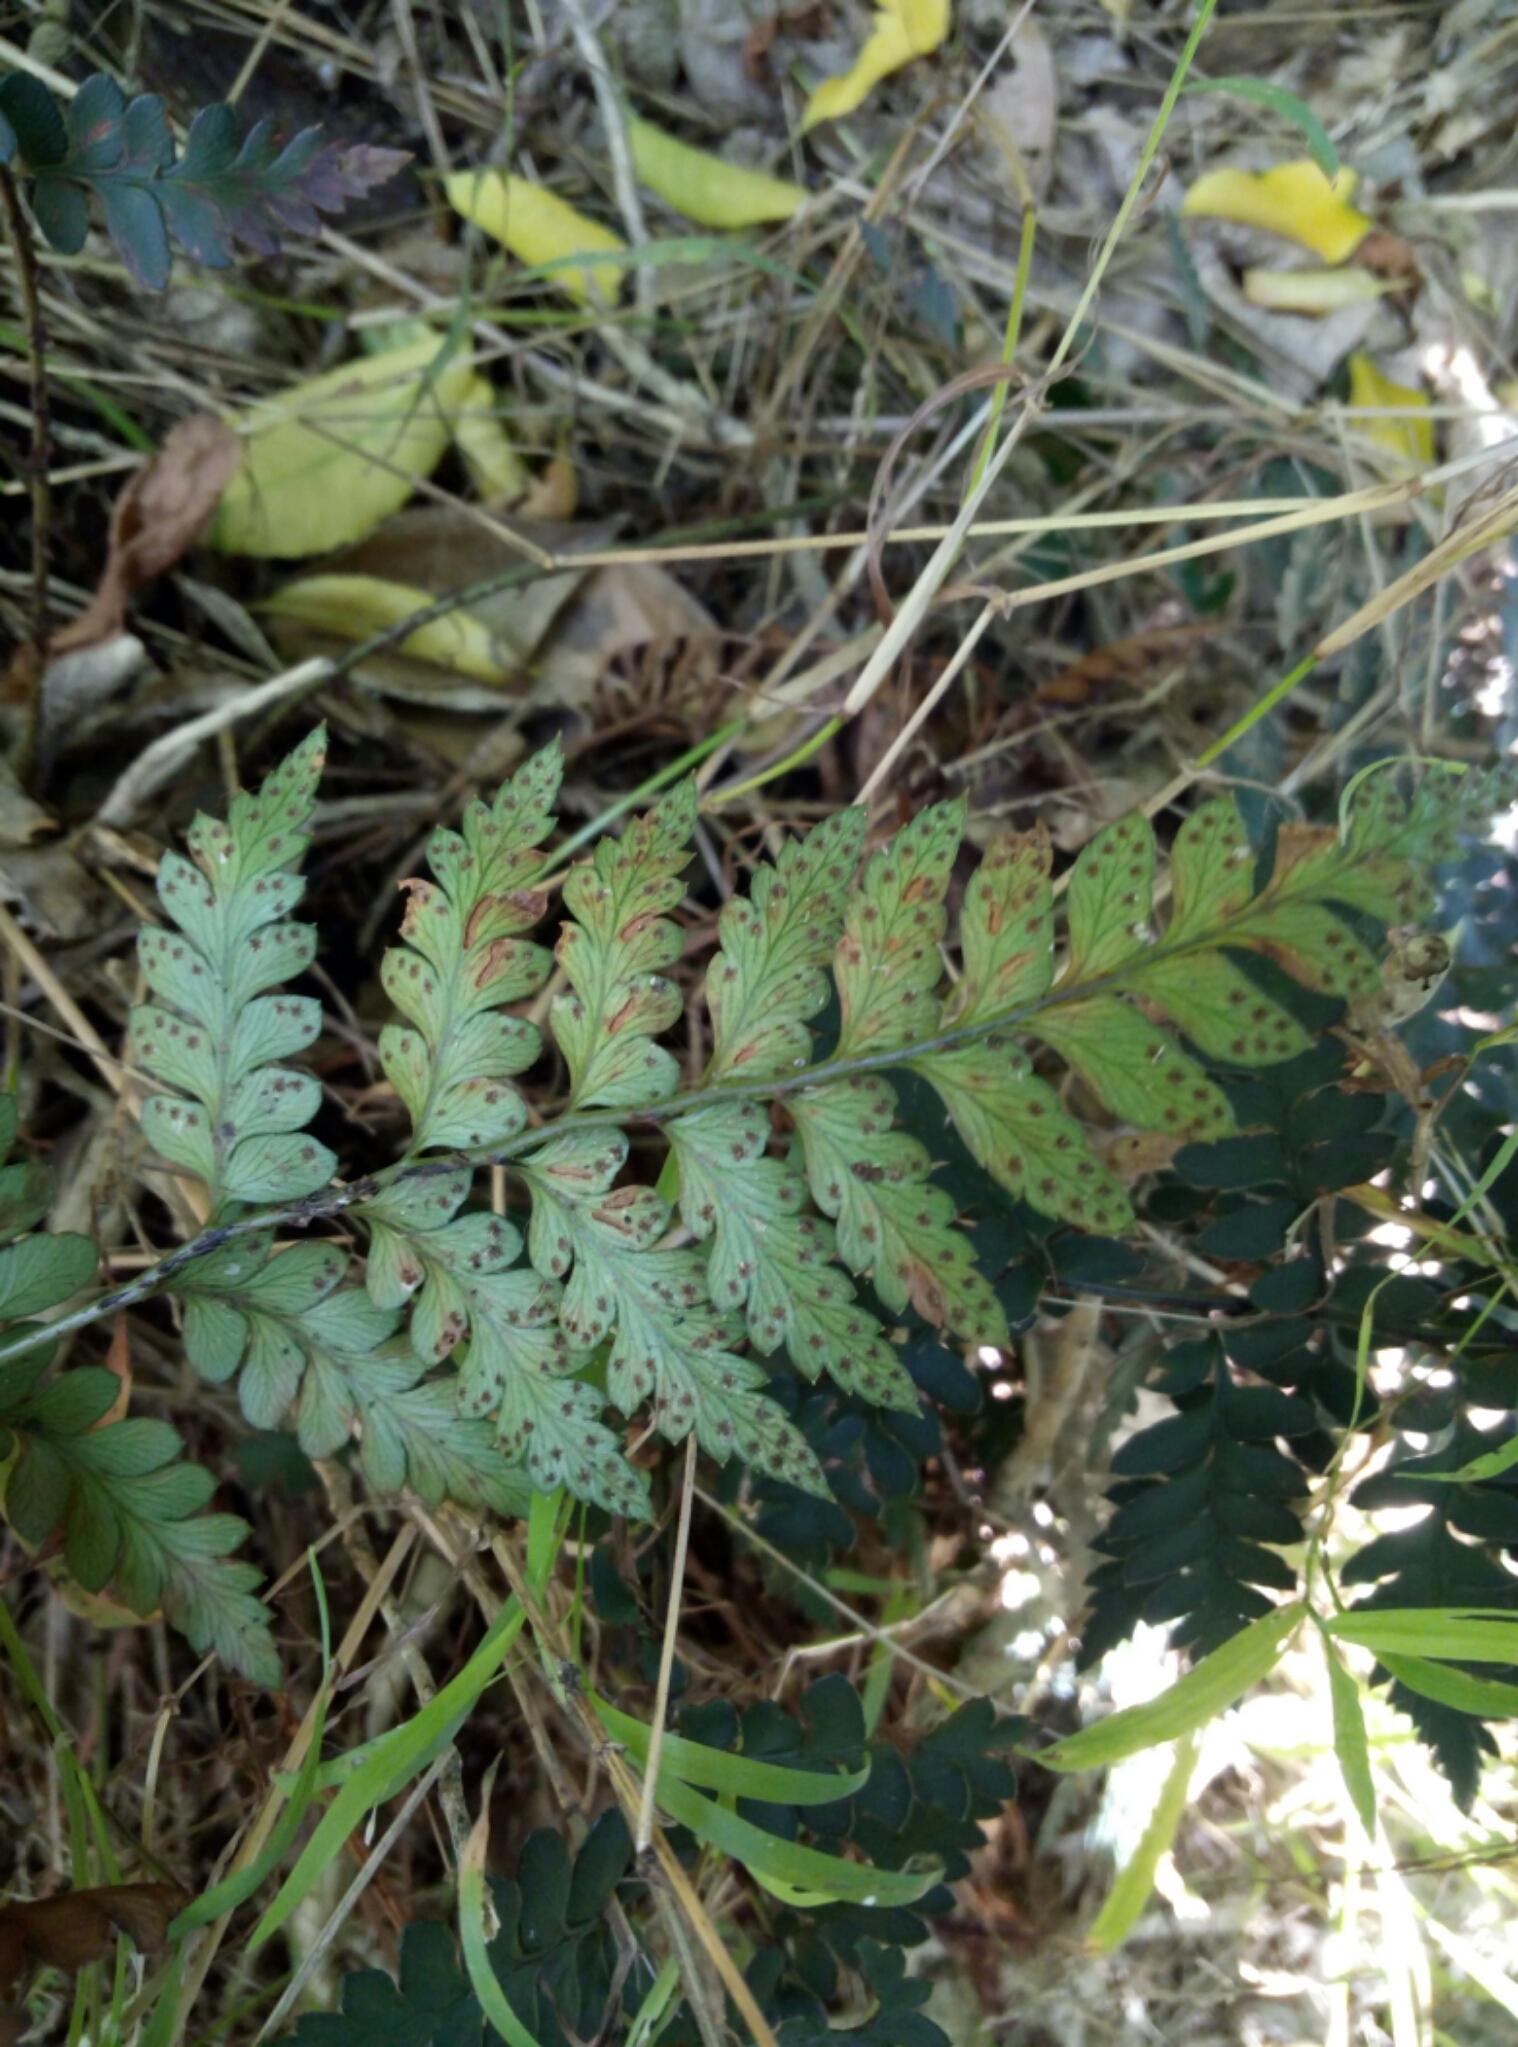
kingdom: Plantae
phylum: Tracheophyta
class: Polypodiopsida
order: Polypodiales
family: Dryopteridaceae
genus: Polystichum
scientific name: Polystichum oculatum
